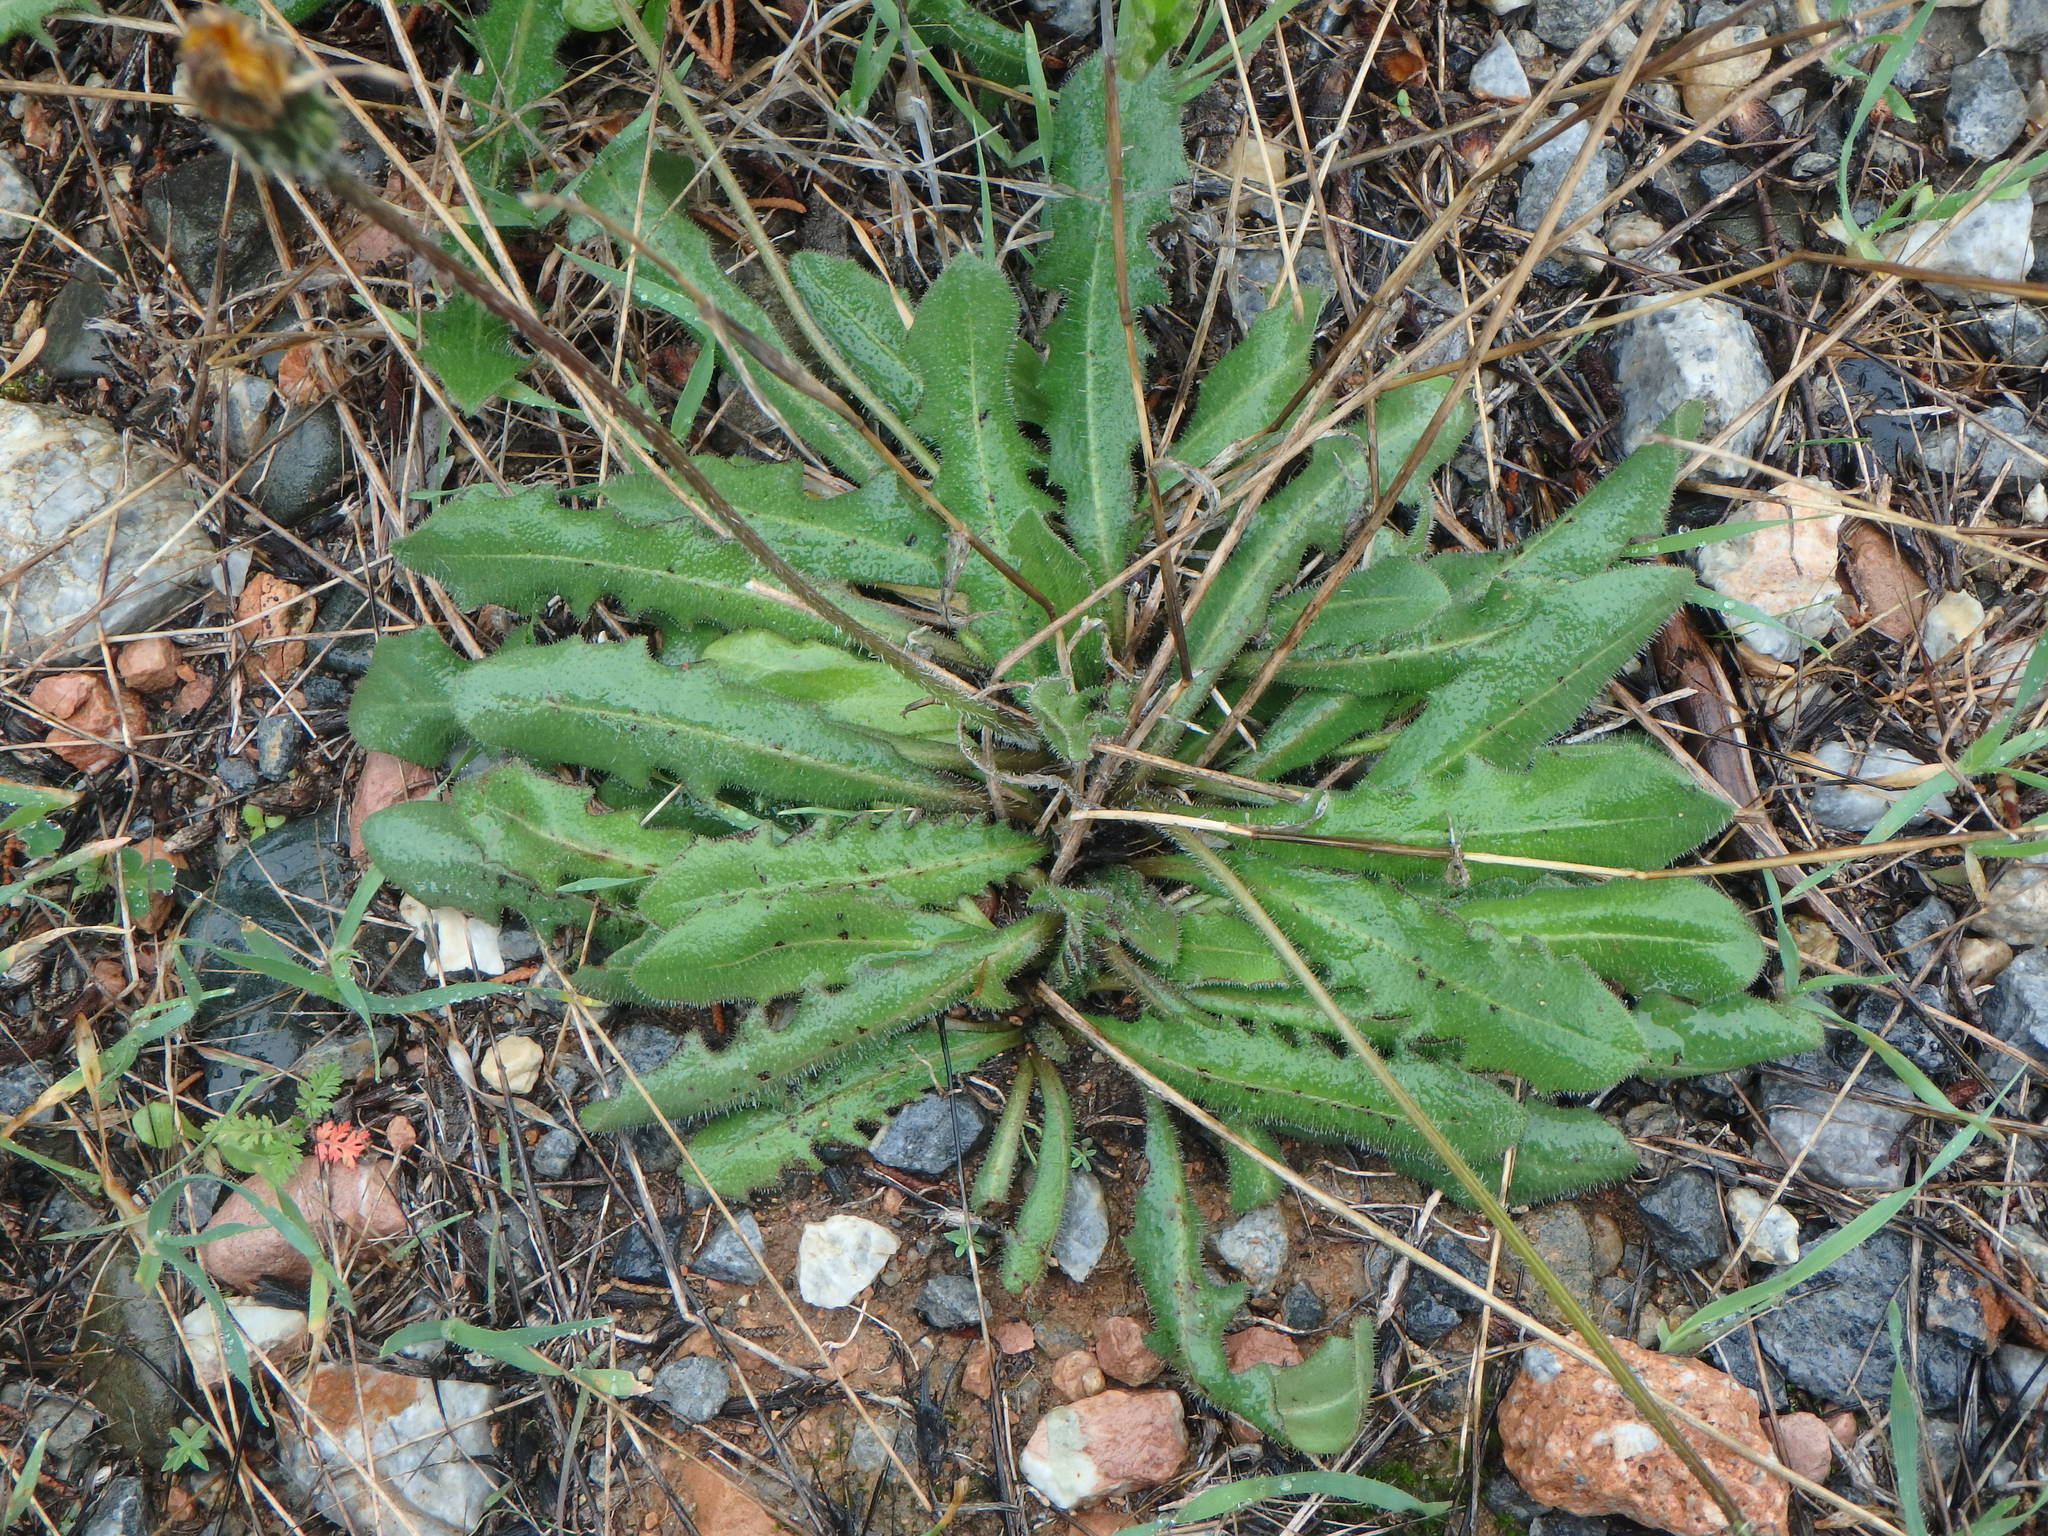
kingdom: Plantae
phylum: Tracheophyta
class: Magnoliopsida
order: Asterales
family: Asteraceae
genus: Leontodon
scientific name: Leontodon tuberosus
